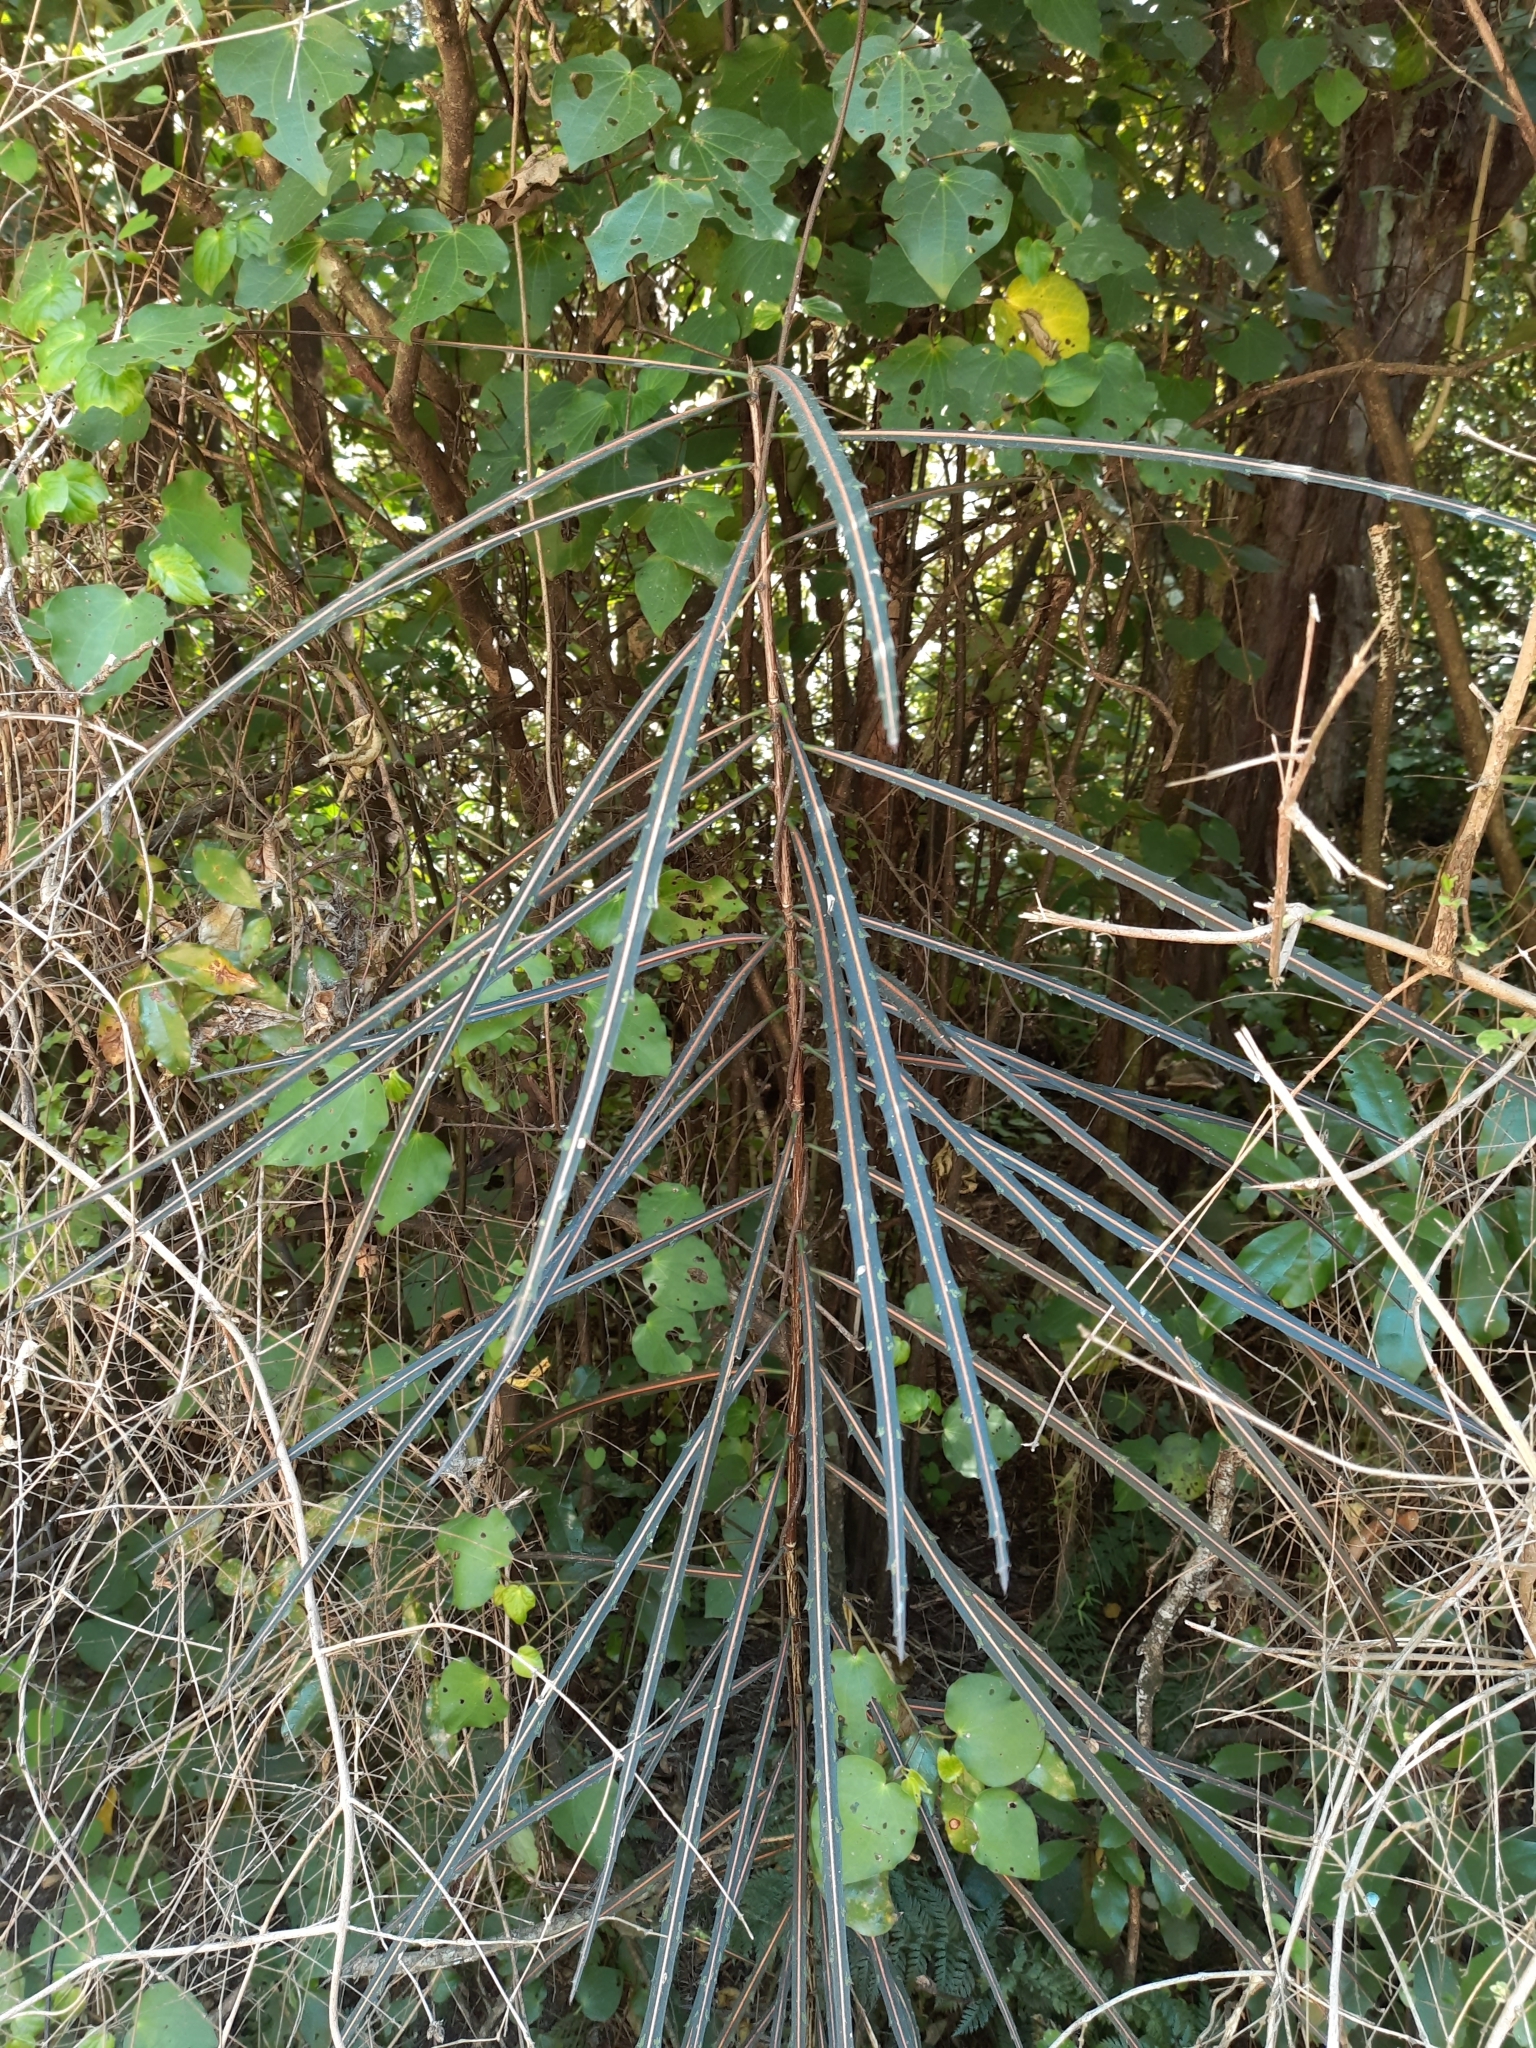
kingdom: Plantae
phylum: Tracheophyta
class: Magnoliopsida
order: Apiales
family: Araliaceae
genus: Pseudopanax
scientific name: Pseudopanax crassifolius
